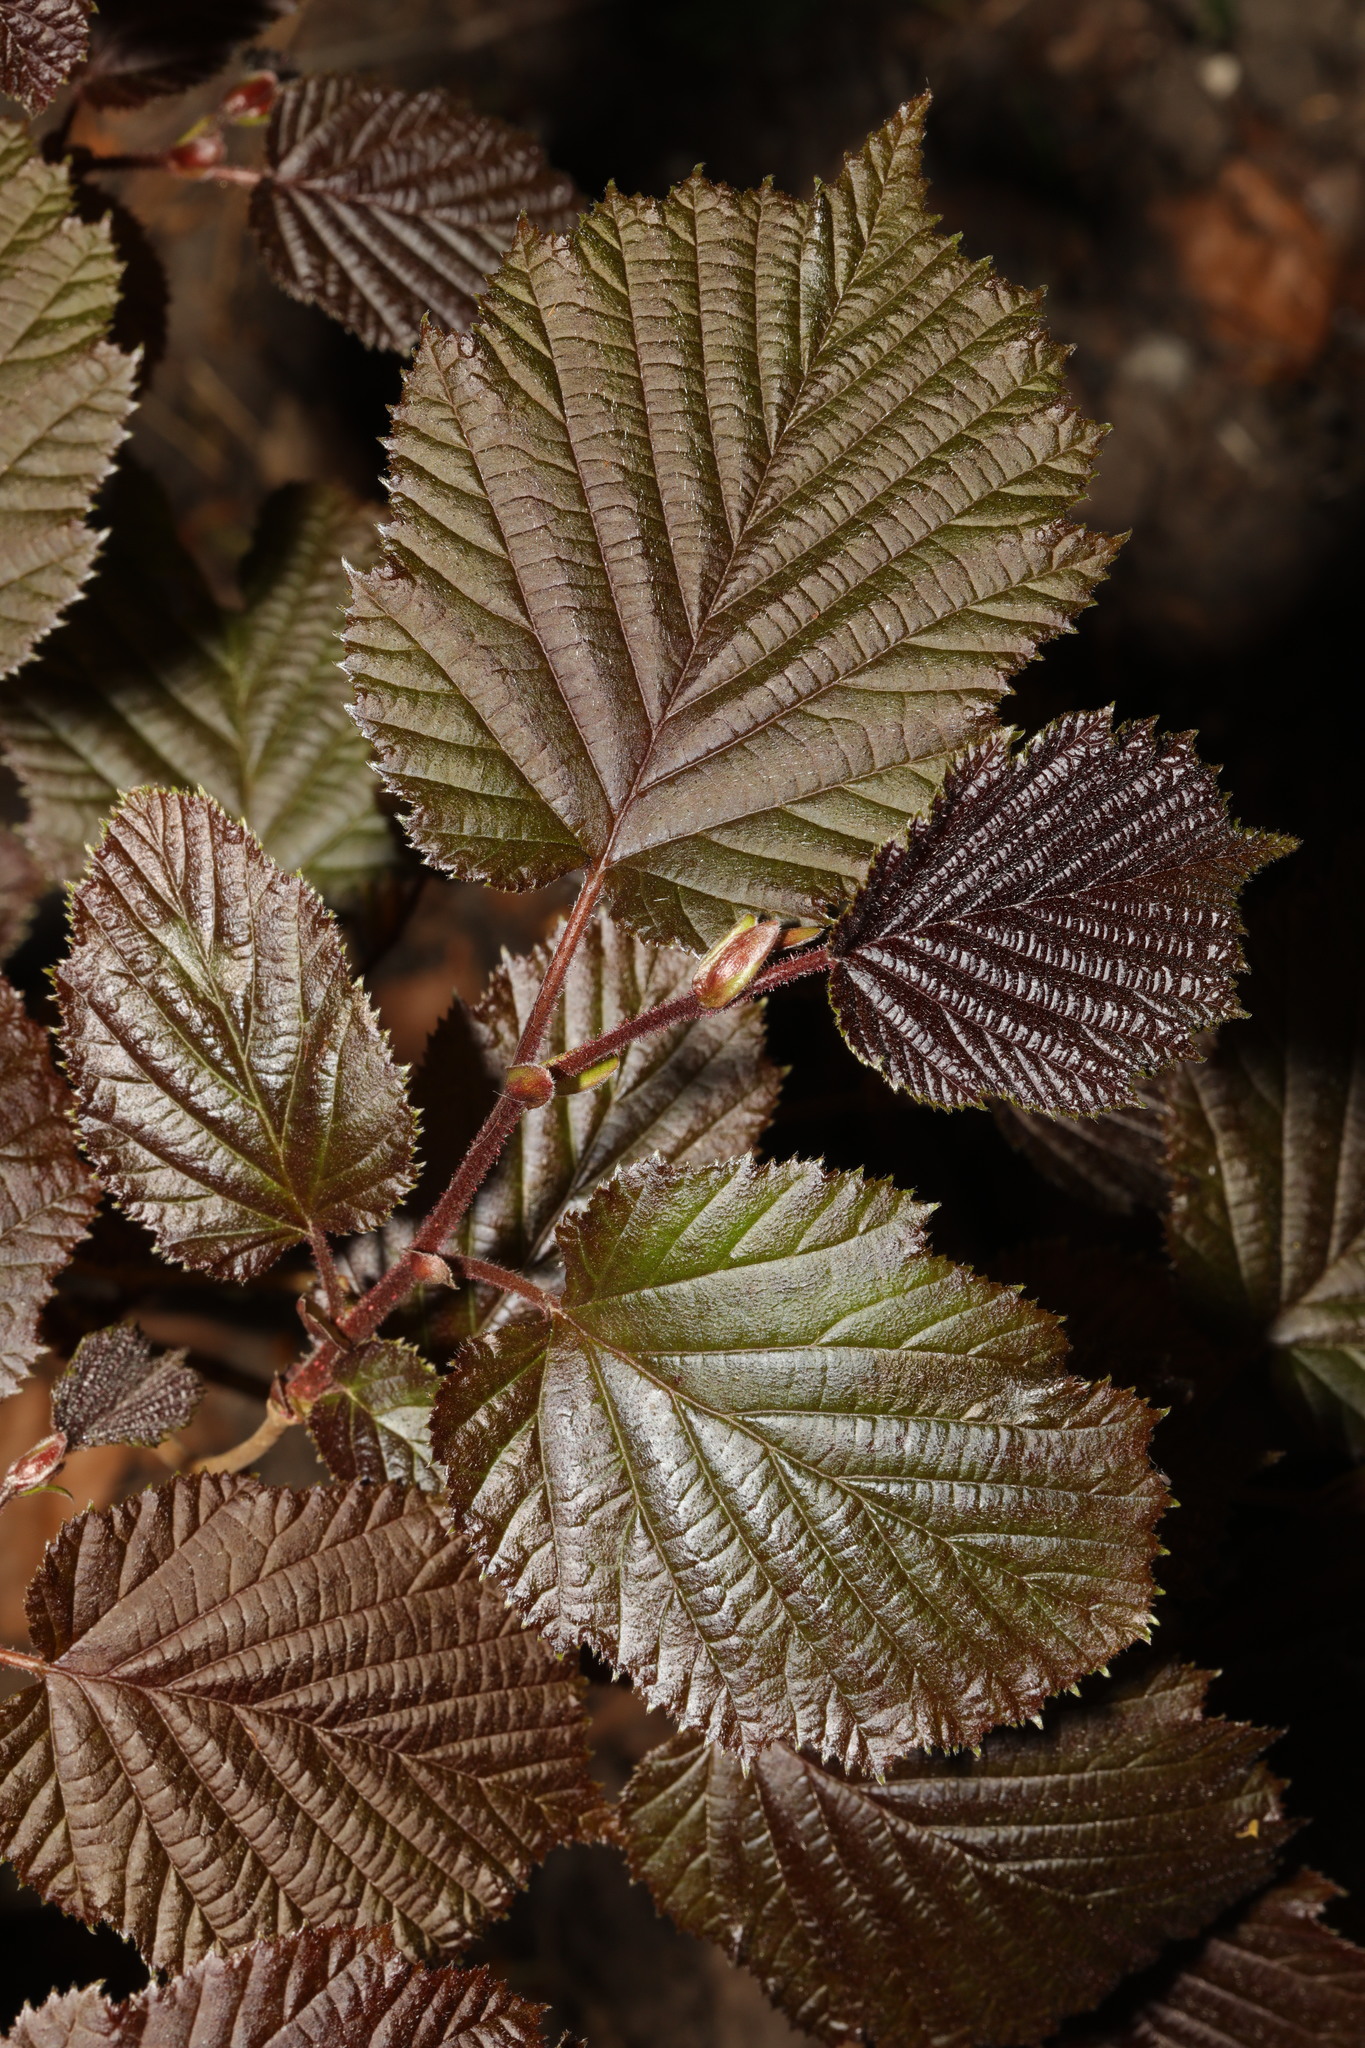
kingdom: Plantae
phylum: Tracheophyta
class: Magnoliopsida
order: Fagales
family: Betulaceae
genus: Corylus
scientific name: Corylus avellana
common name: European hazel
